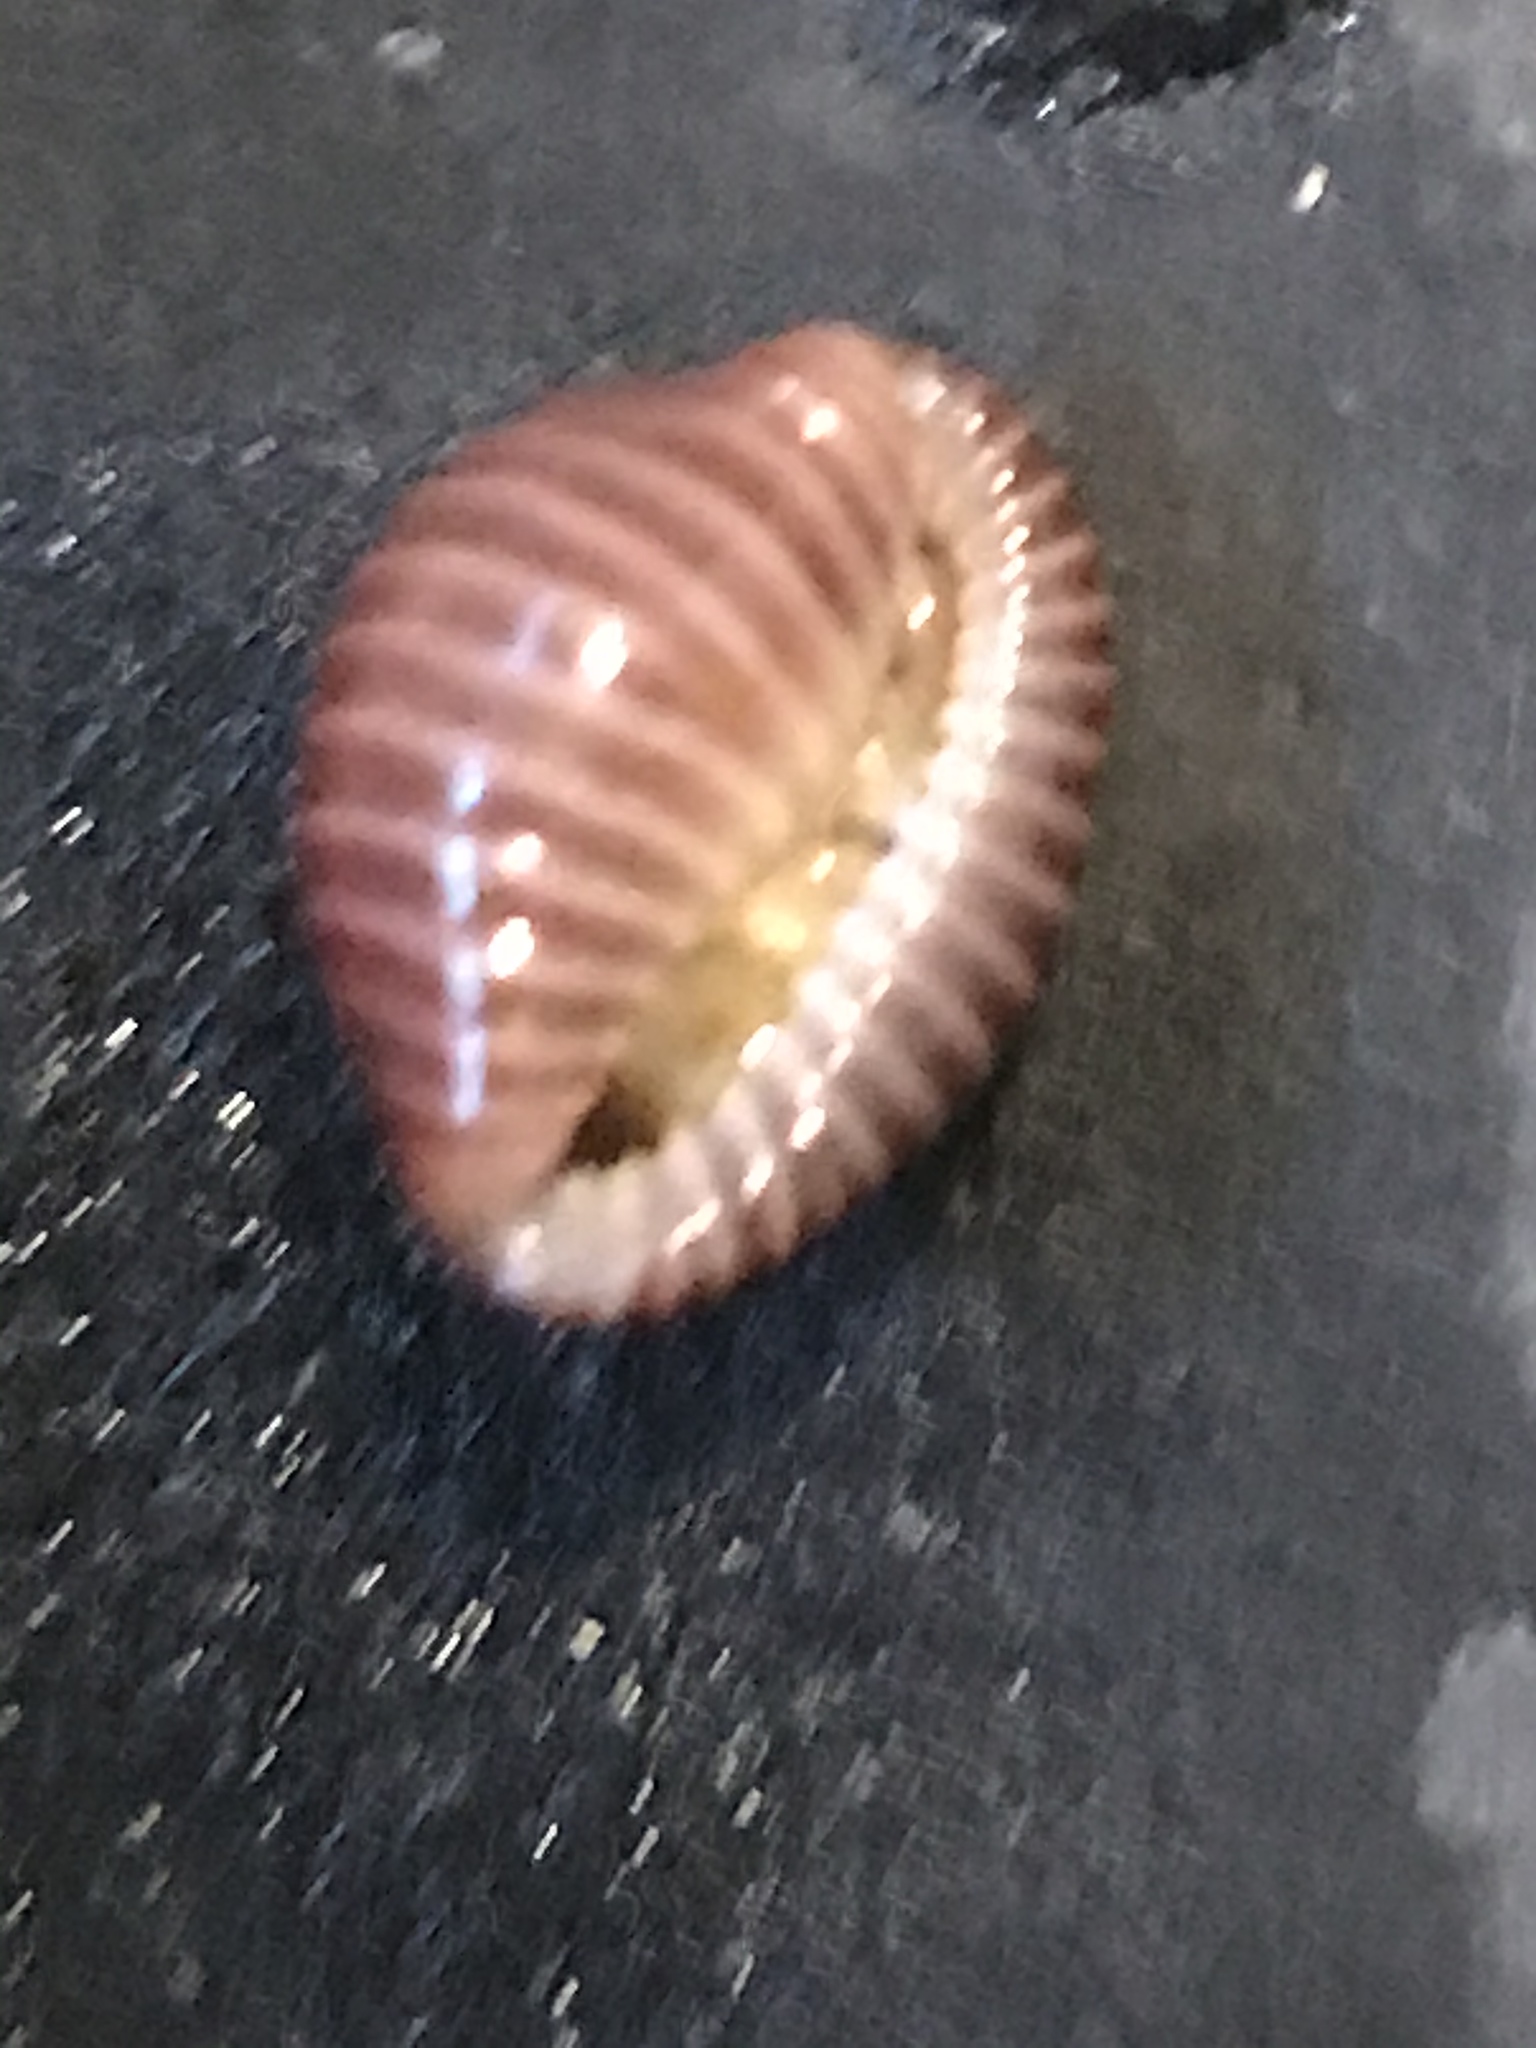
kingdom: Animalia
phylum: Mollusca
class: Gastropoda
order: Littorinimorpha
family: Triviidae
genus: Pseudopusula
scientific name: Pseudopusula californiana
